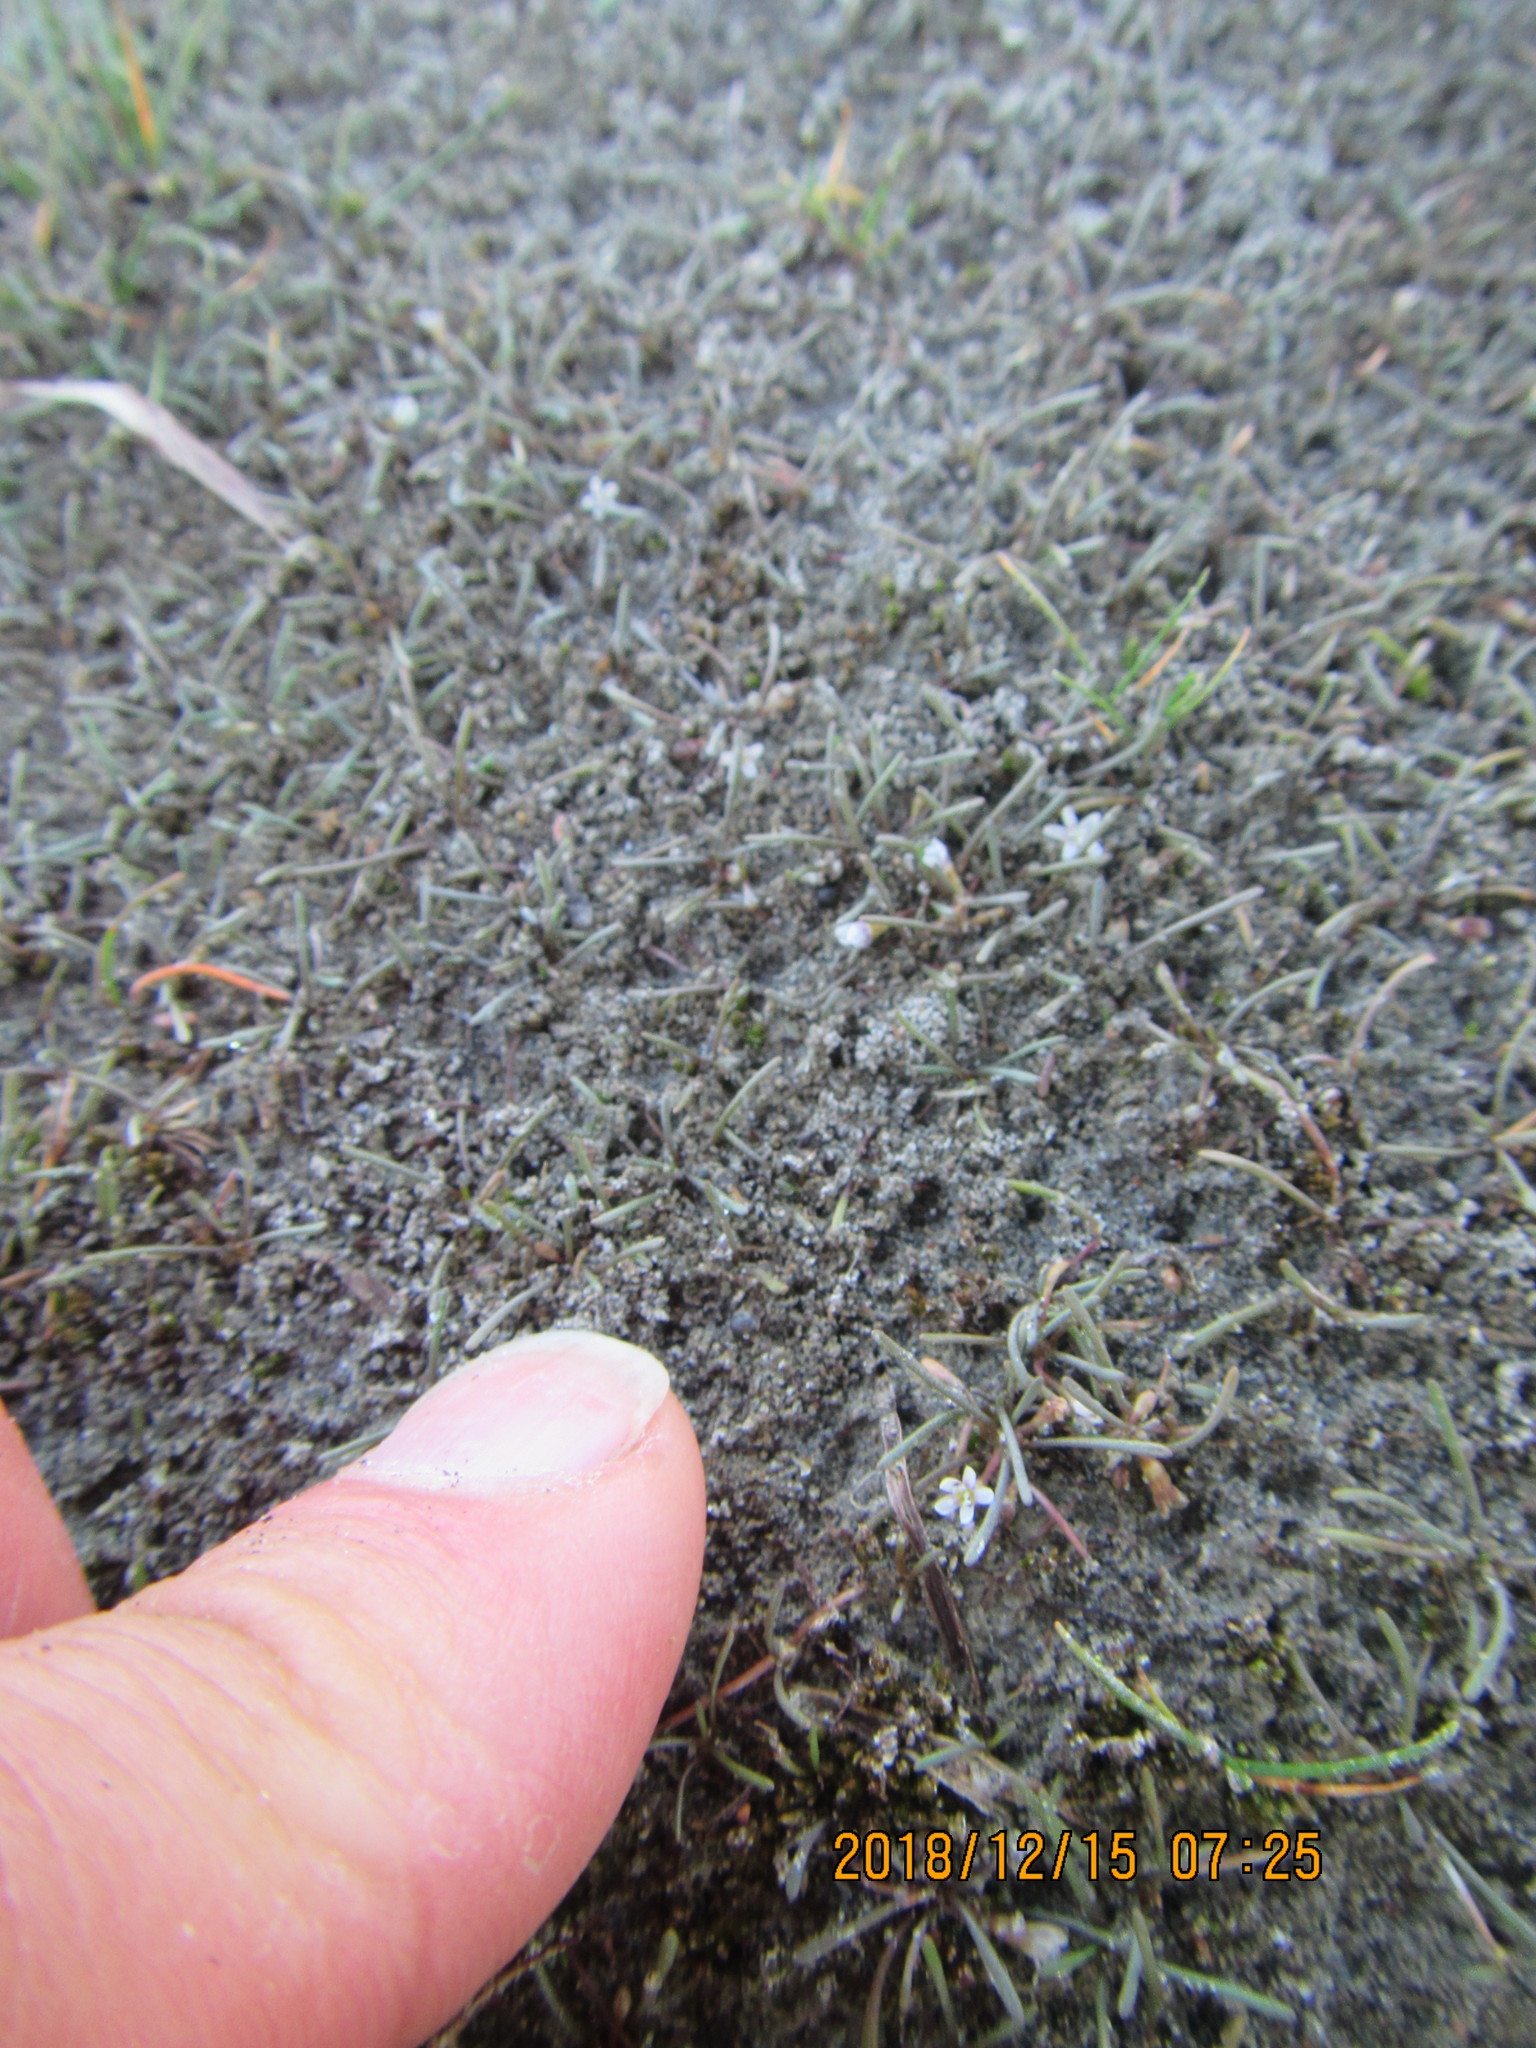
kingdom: Plantae
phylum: Tracheophyta
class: Magnoliopsida
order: Lamiales
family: Scrophulariaceae
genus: Limosella
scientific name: Limosella australis
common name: Welsh mudwort
